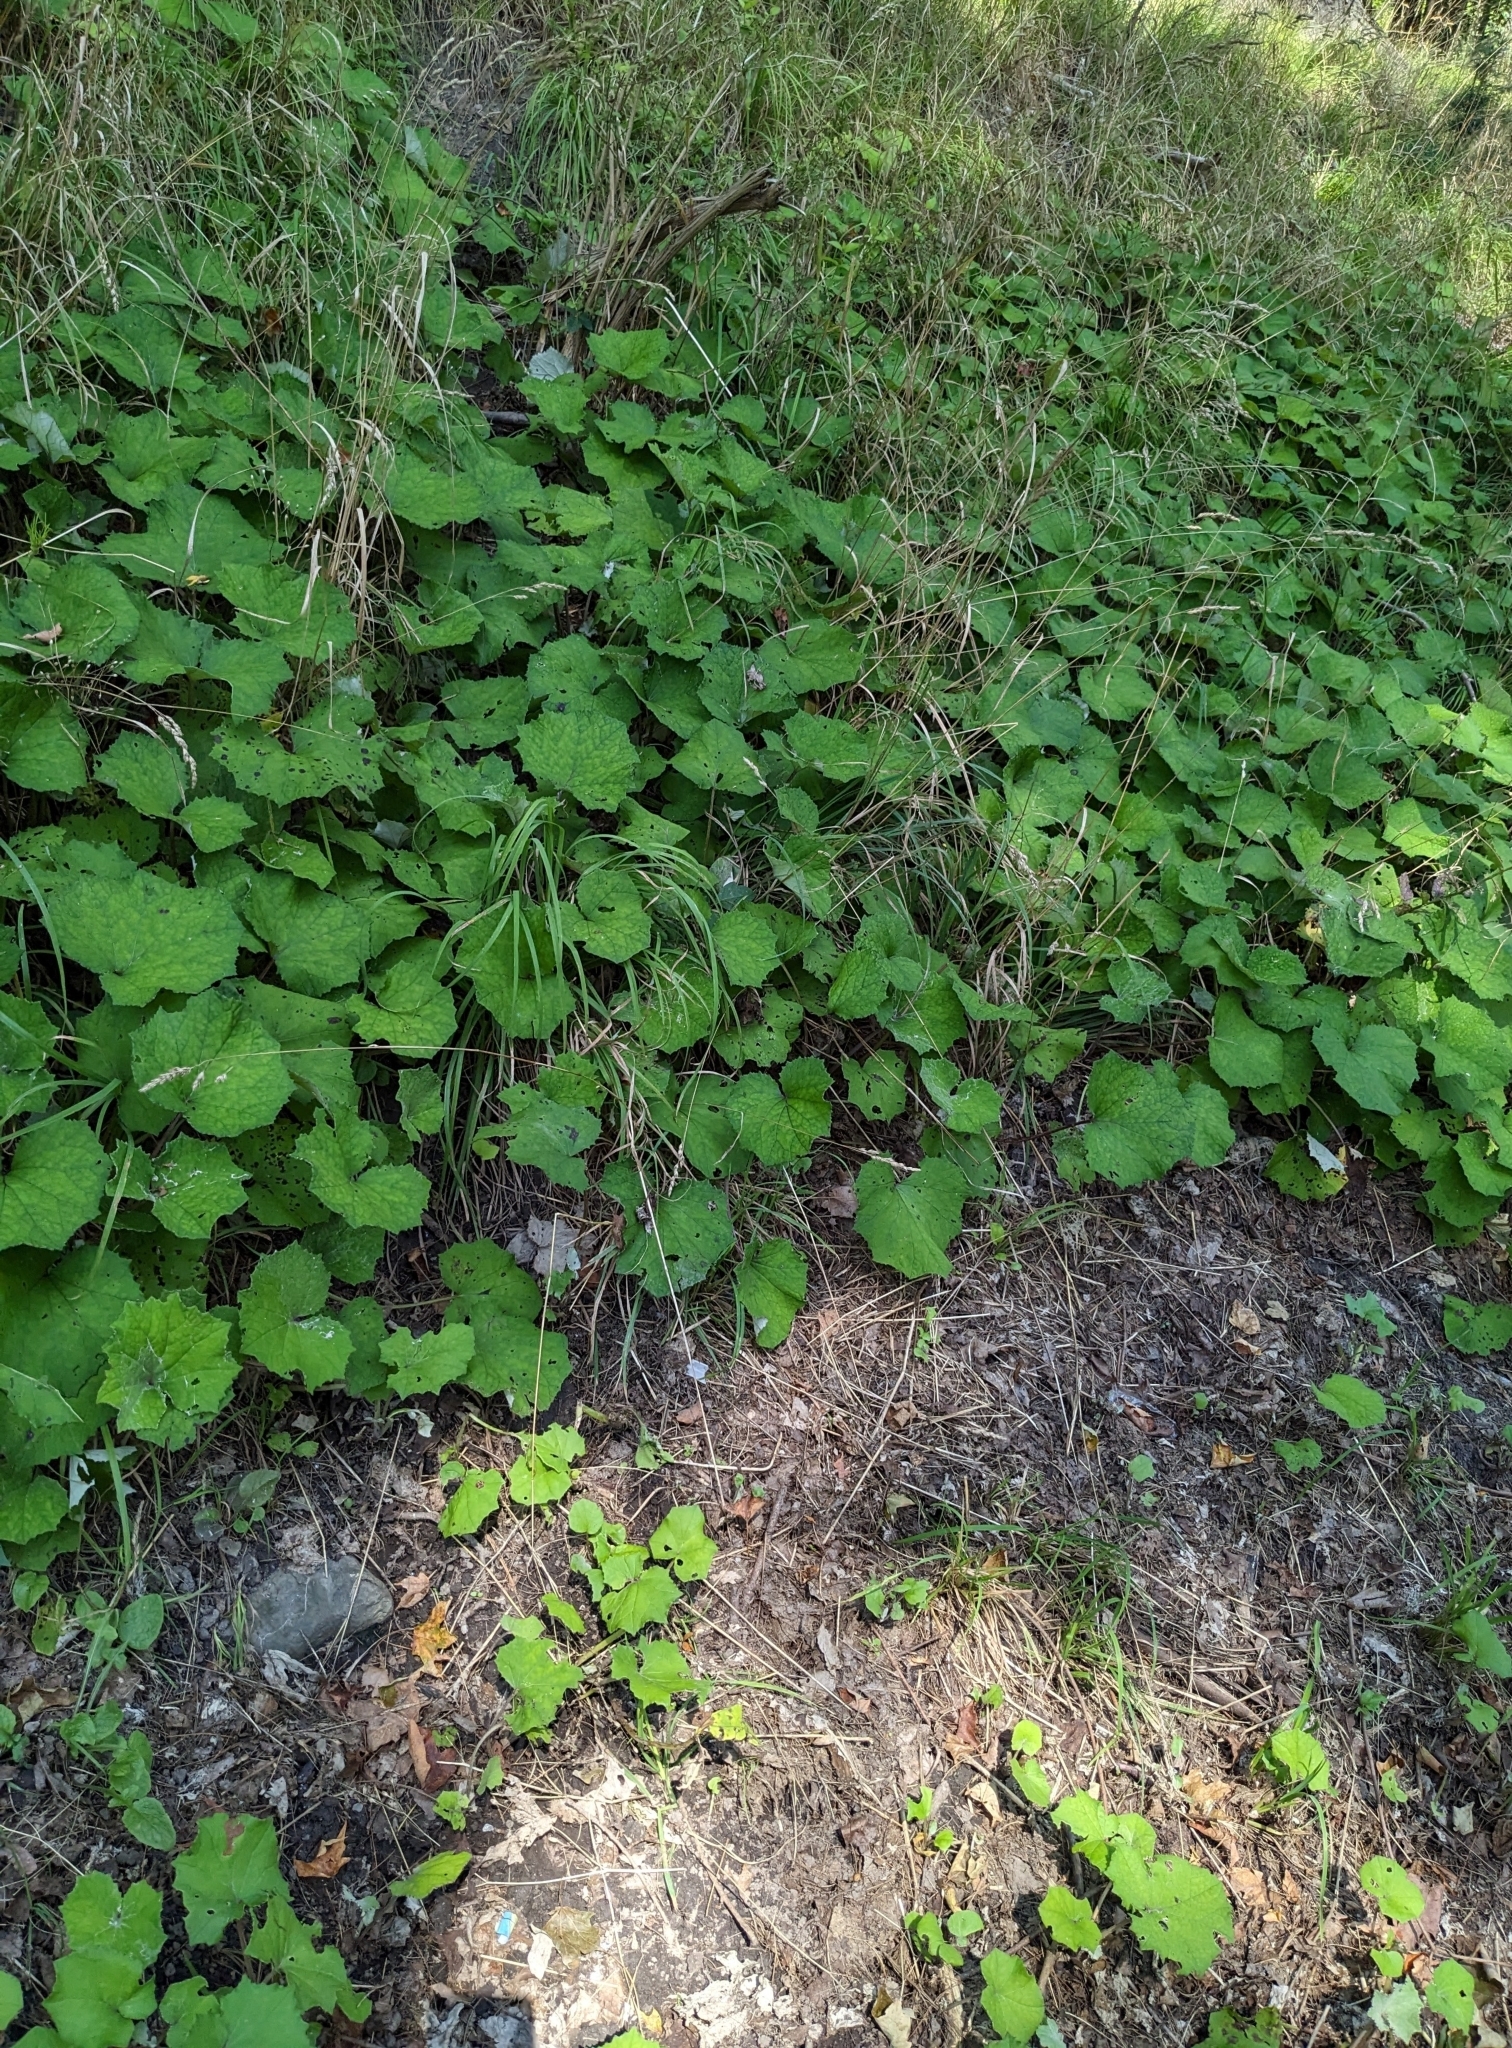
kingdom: Plantae
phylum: Tracheophyta
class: Magnoliopsida
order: Asterales
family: Asteraceae
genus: Tussilago
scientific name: Tussilago farfara
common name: Coltsfoot
